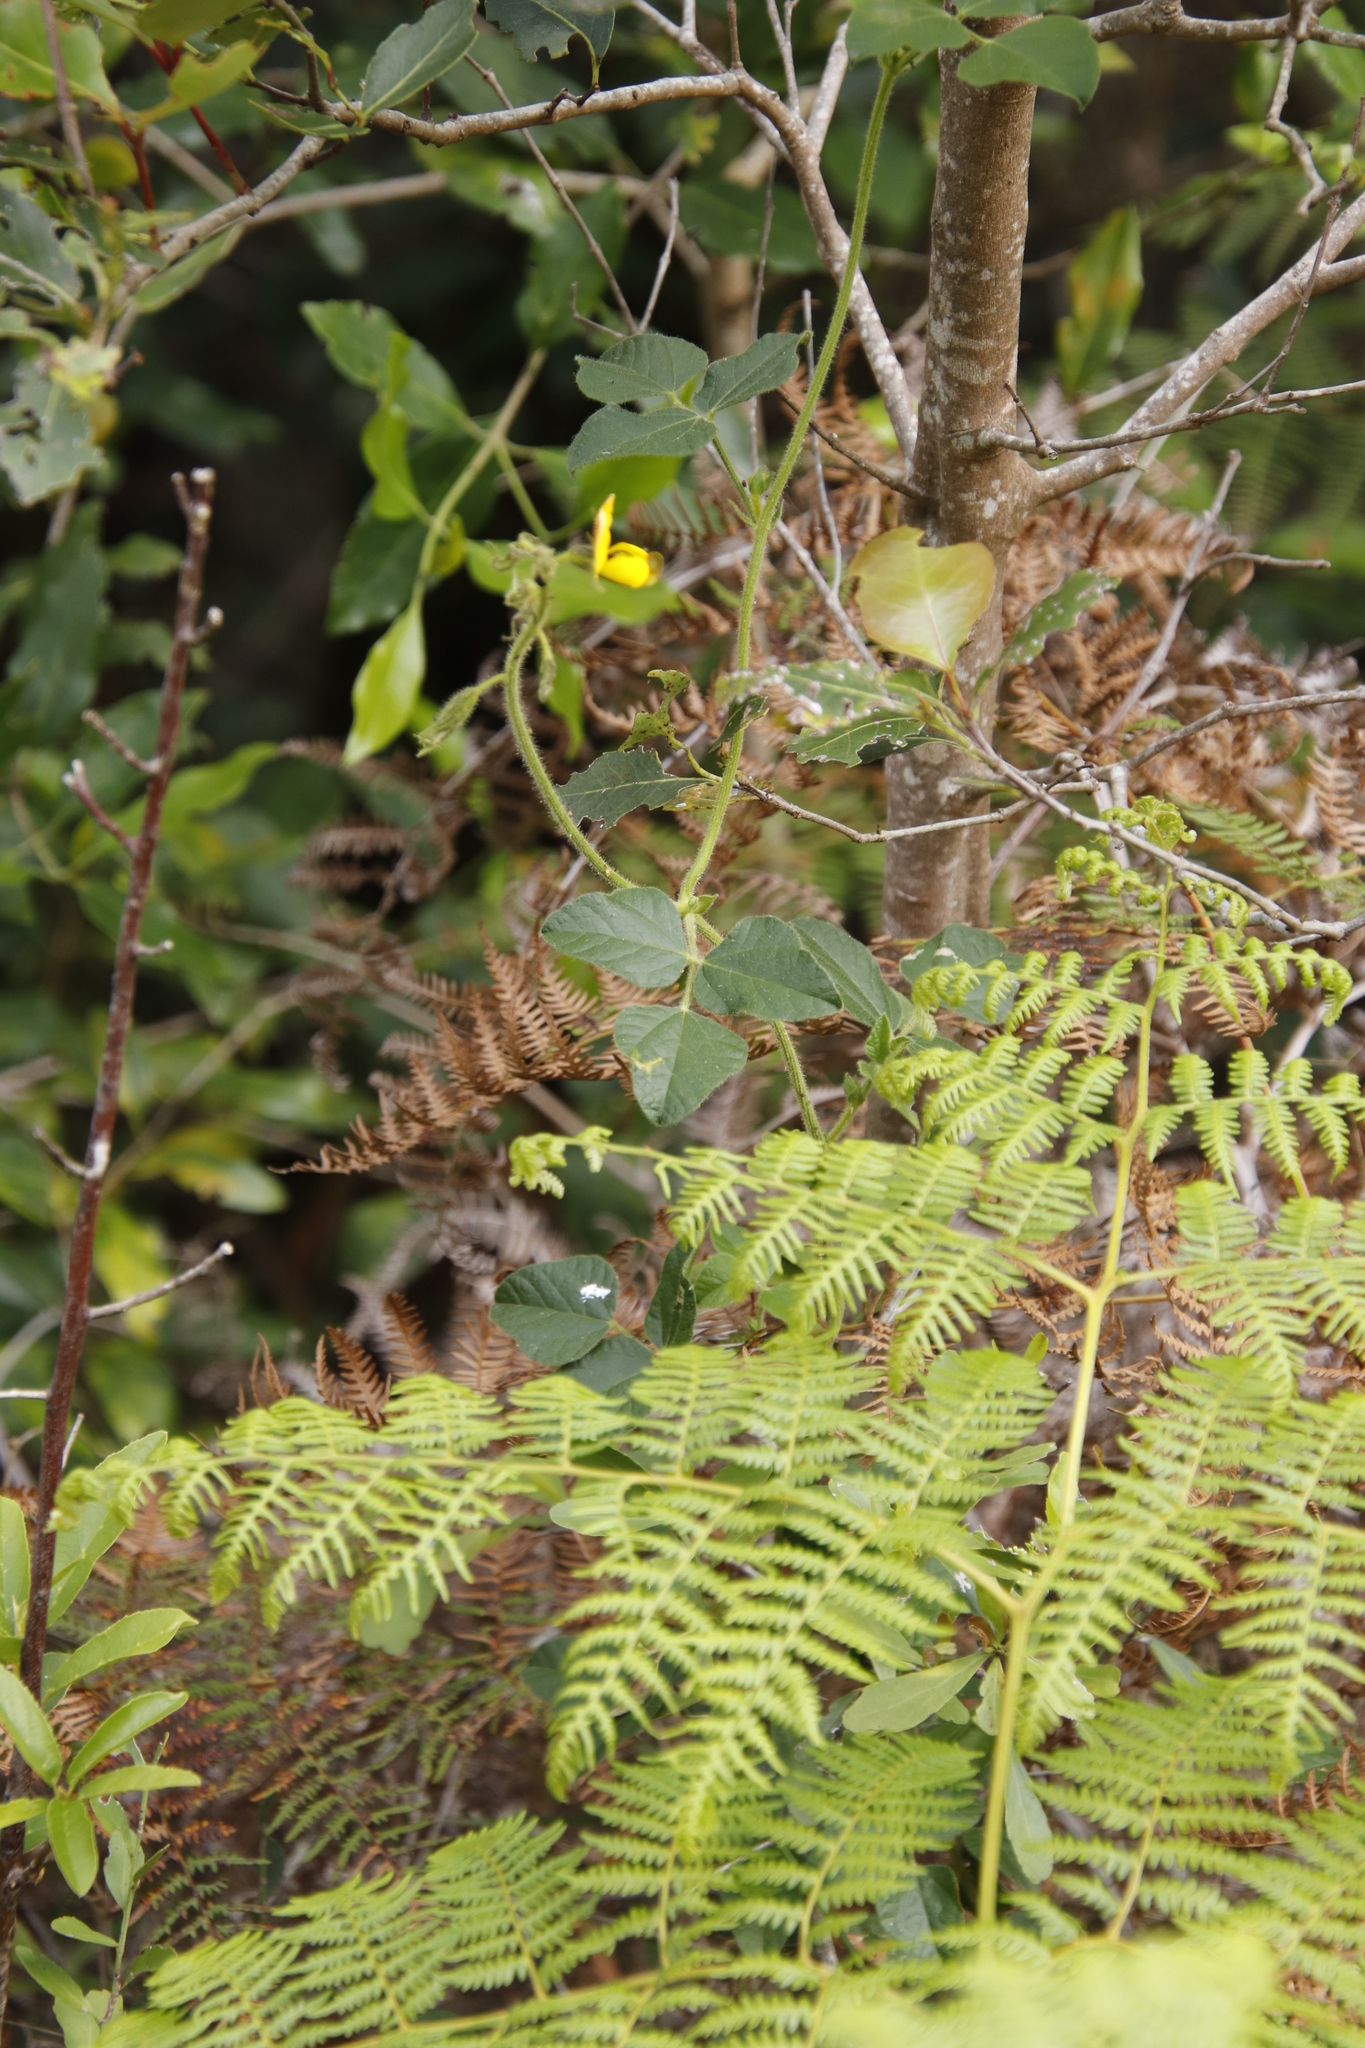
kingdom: Plantae
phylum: Tracheophyta
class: Magnoliopsida
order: Fabales
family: Fabaceae
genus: Bolusafra
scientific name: Bolusafra bituminosa
